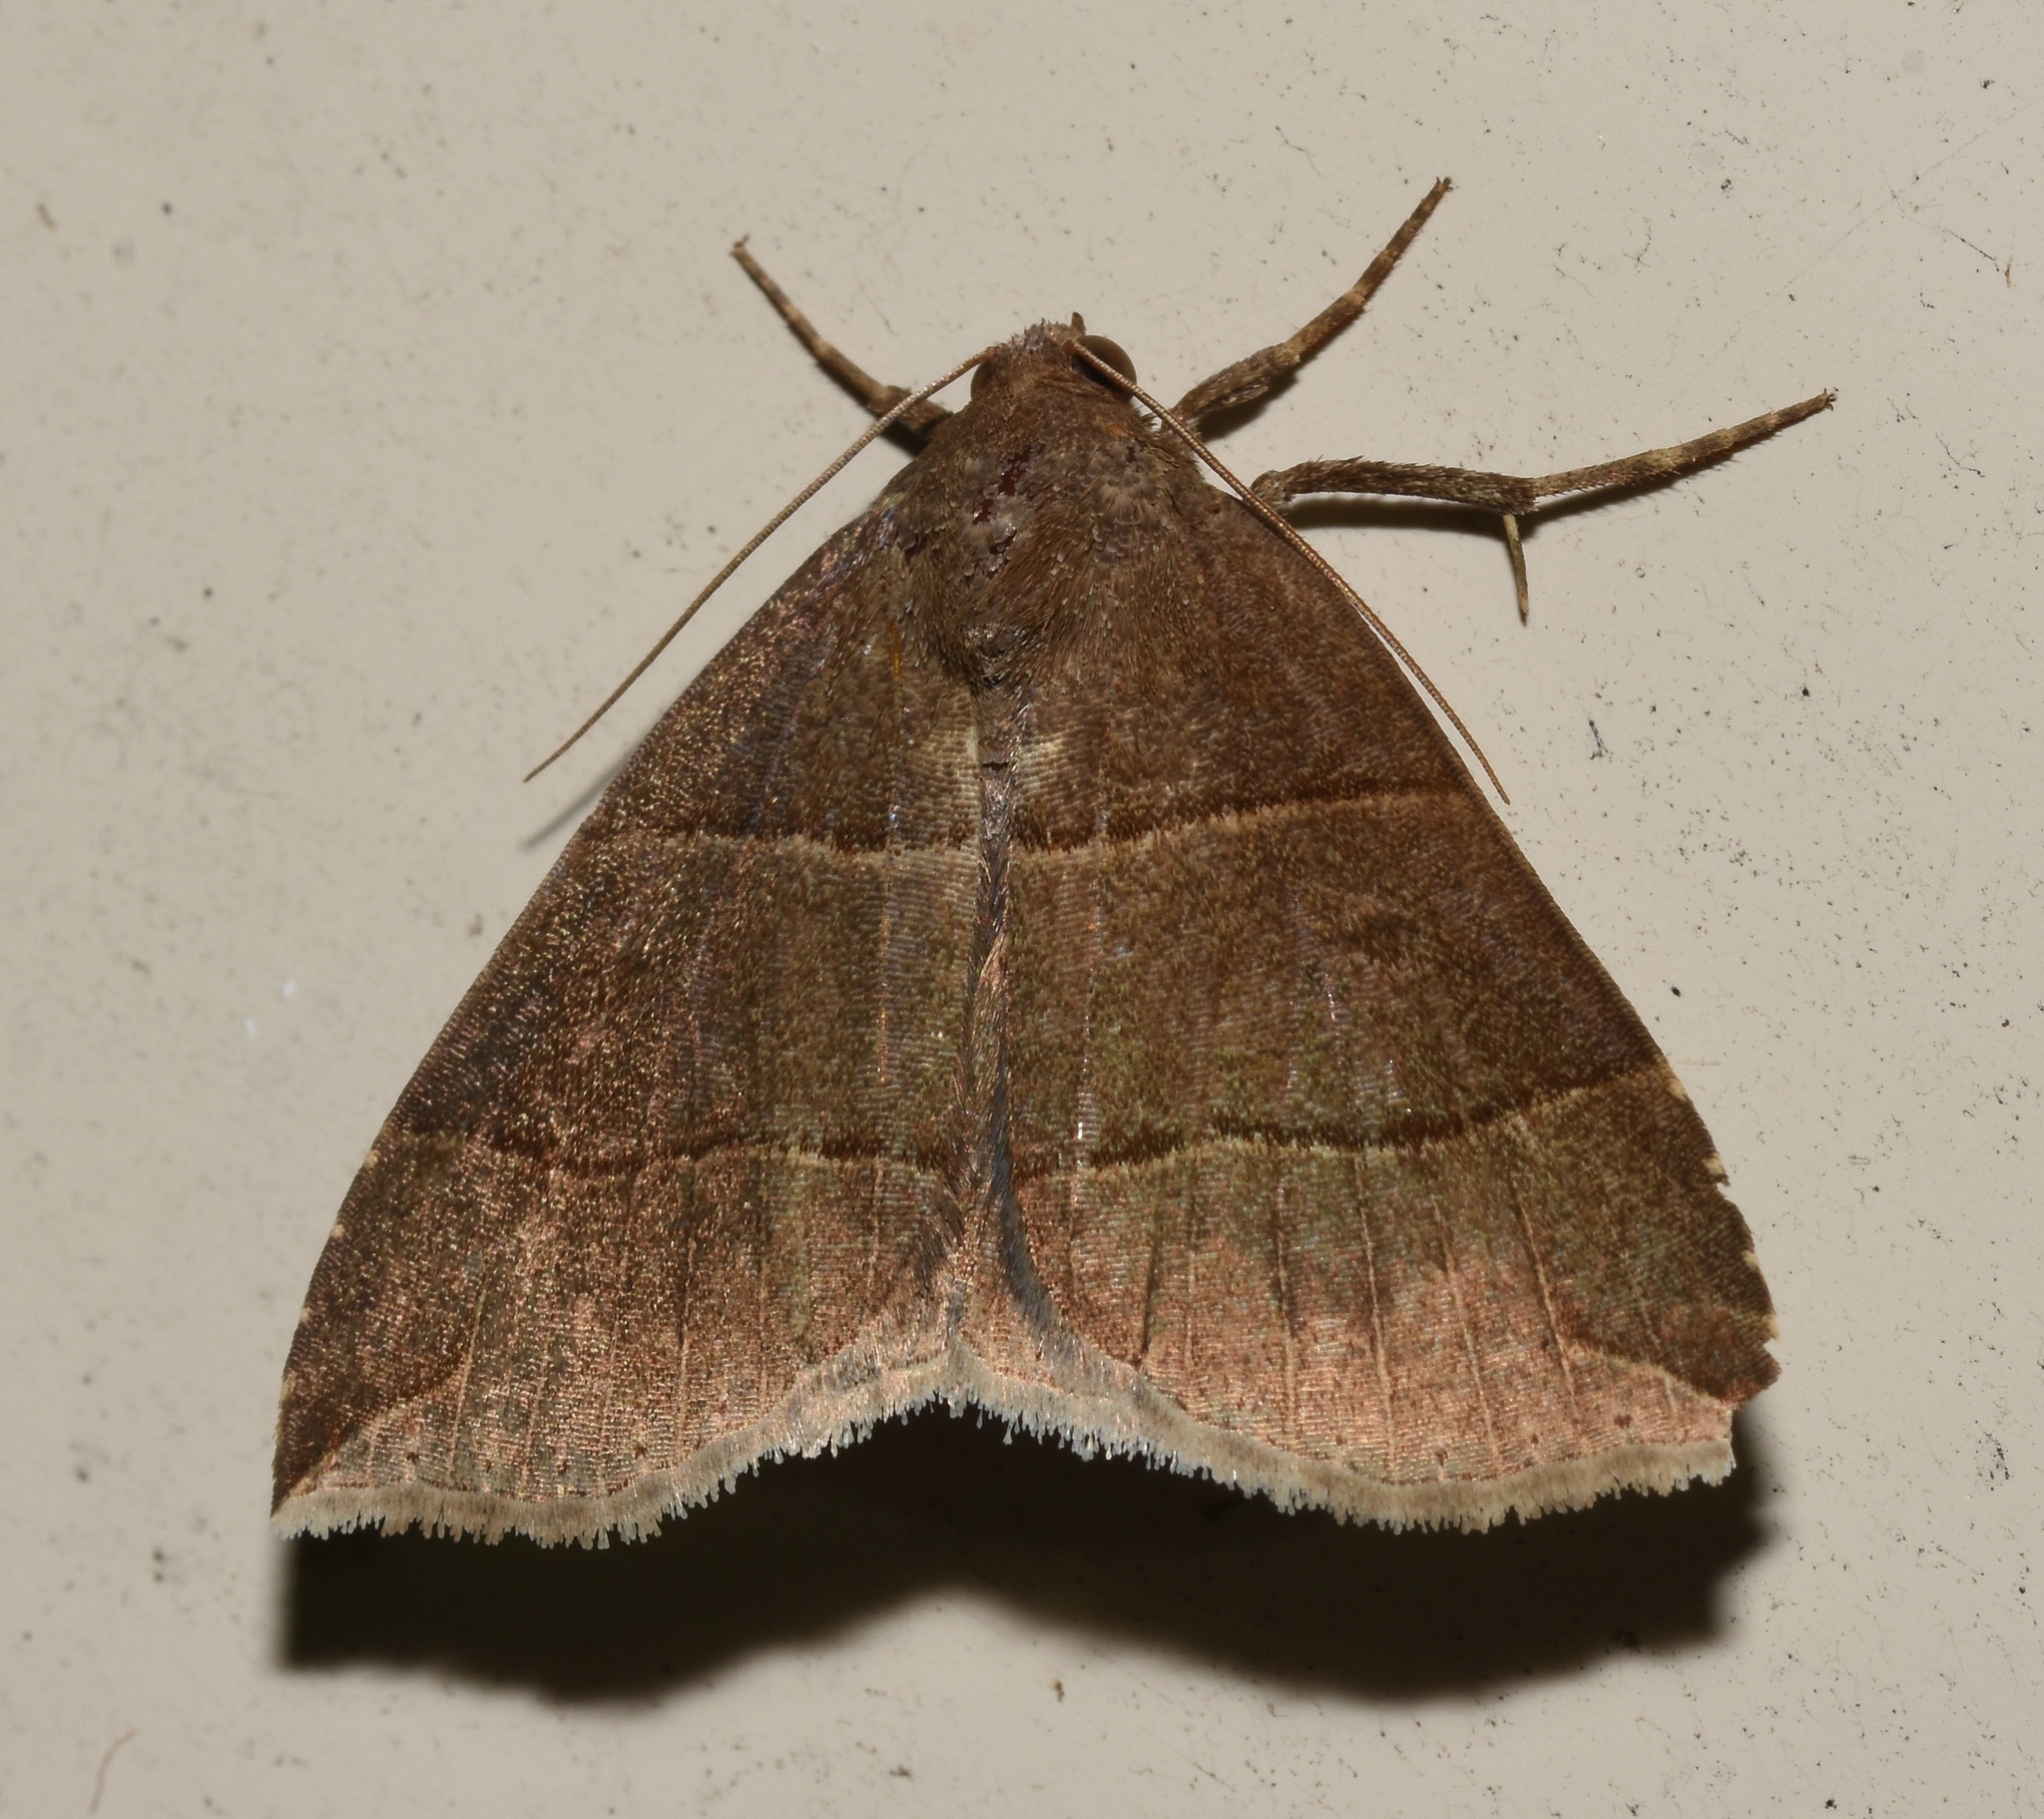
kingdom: Animalia
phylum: Arthropoda
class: Insecta
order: Lepidoptera
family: Erebidae
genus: Parallelia
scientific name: Parallelia bistriaris
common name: Maple looper moth
